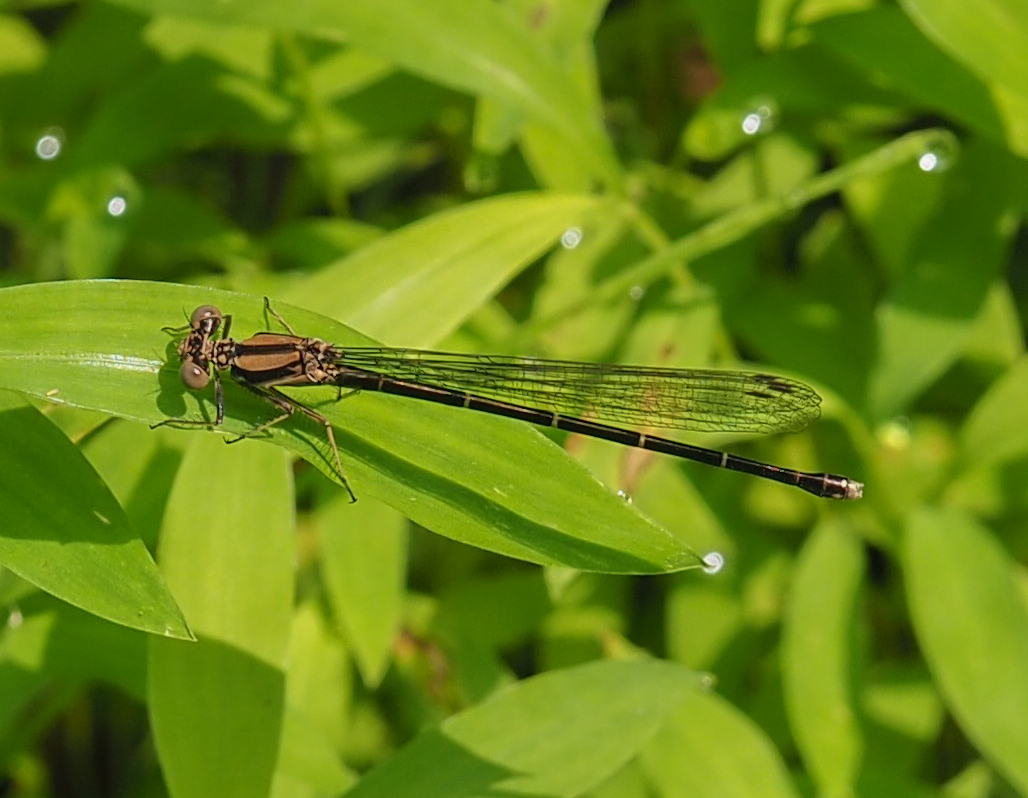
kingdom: Animalia
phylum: Arthropoda
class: Insecta
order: Odonata
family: Coenagrionidae
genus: Argia
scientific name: Argia tibialis
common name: Blue-tipped dancer
